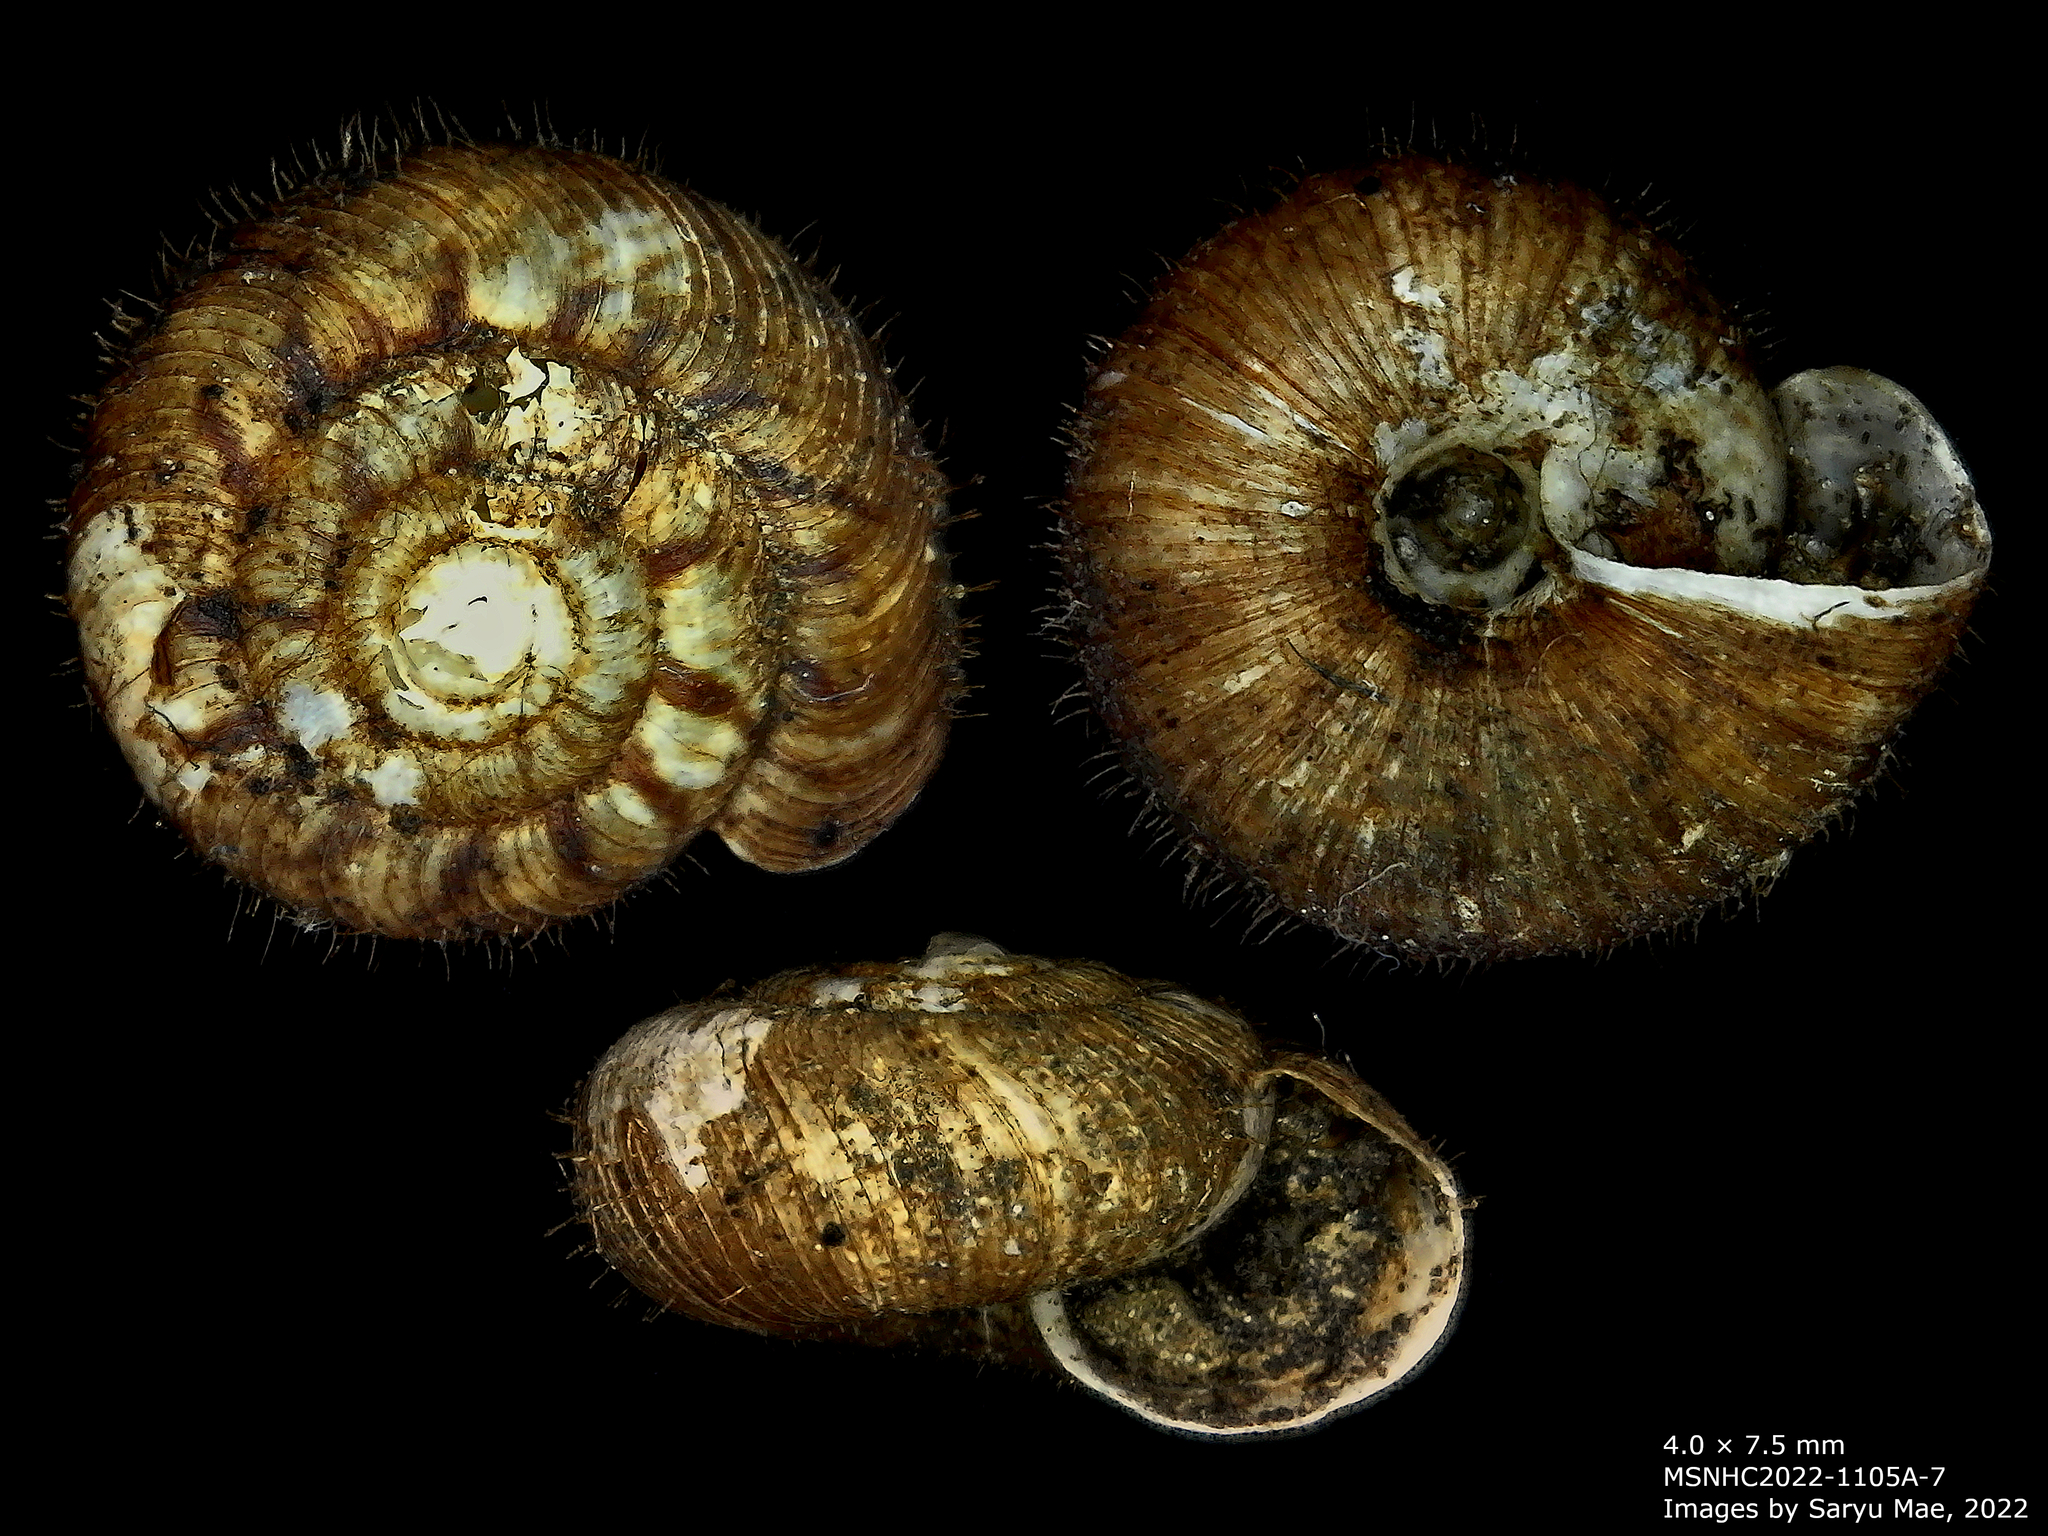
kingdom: Animalia
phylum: Mollusca
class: Gastropoda
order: Stylommatophora
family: Charopidae
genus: Neophenacohelix
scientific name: Neophenacohelix ziczac
